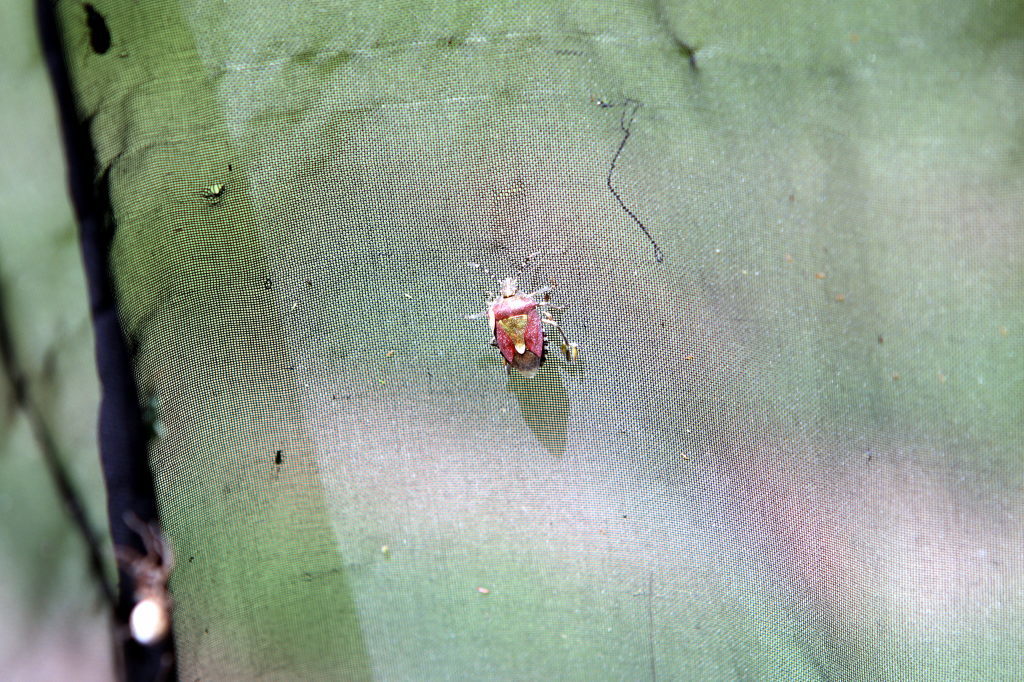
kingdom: Animalia
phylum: Arthropoda
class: Insecta
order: Hemiptera
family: Pentatomidae
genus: Dolycoris
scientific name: Dolycoris baccarum
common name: Sloe bug
